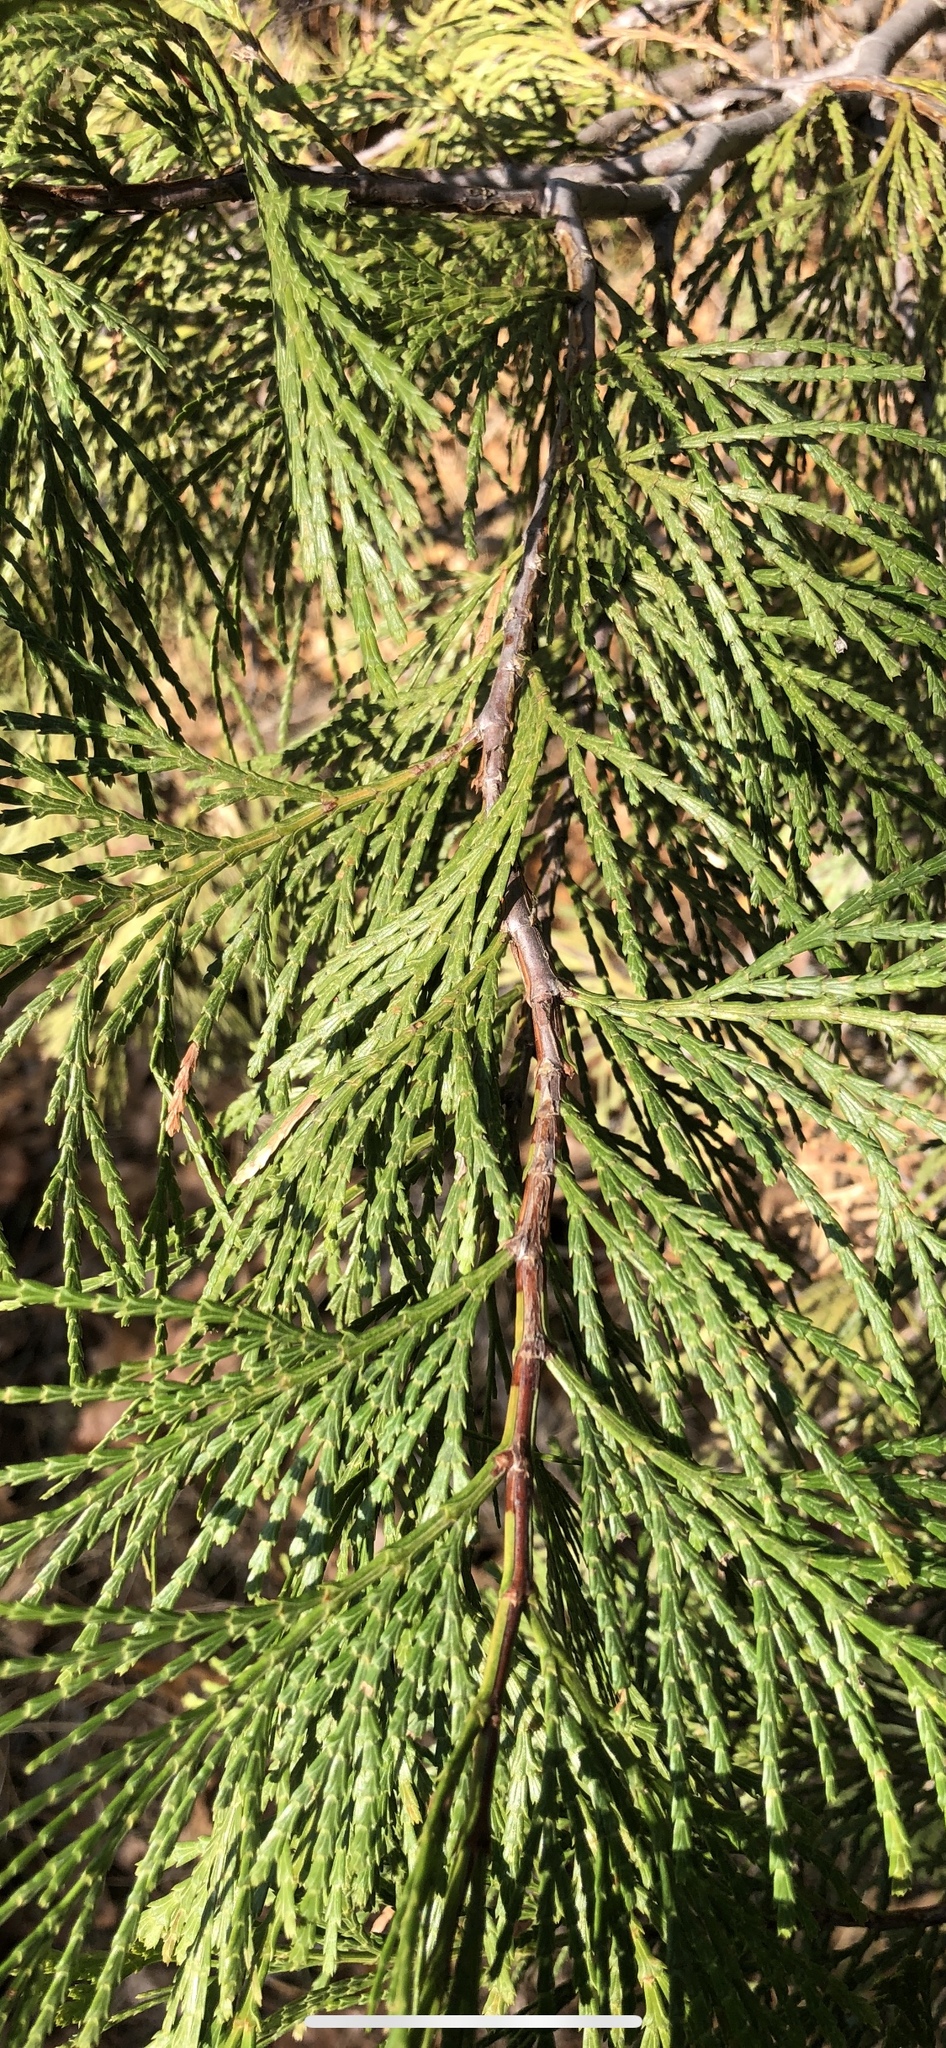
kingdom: Plantae
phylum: Tracheophyta
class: Pinopsida
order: Pinales
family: Cupressaceae
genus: Calocedrus
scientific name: Calocedrus decurrens
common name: Californian incense-cedar
